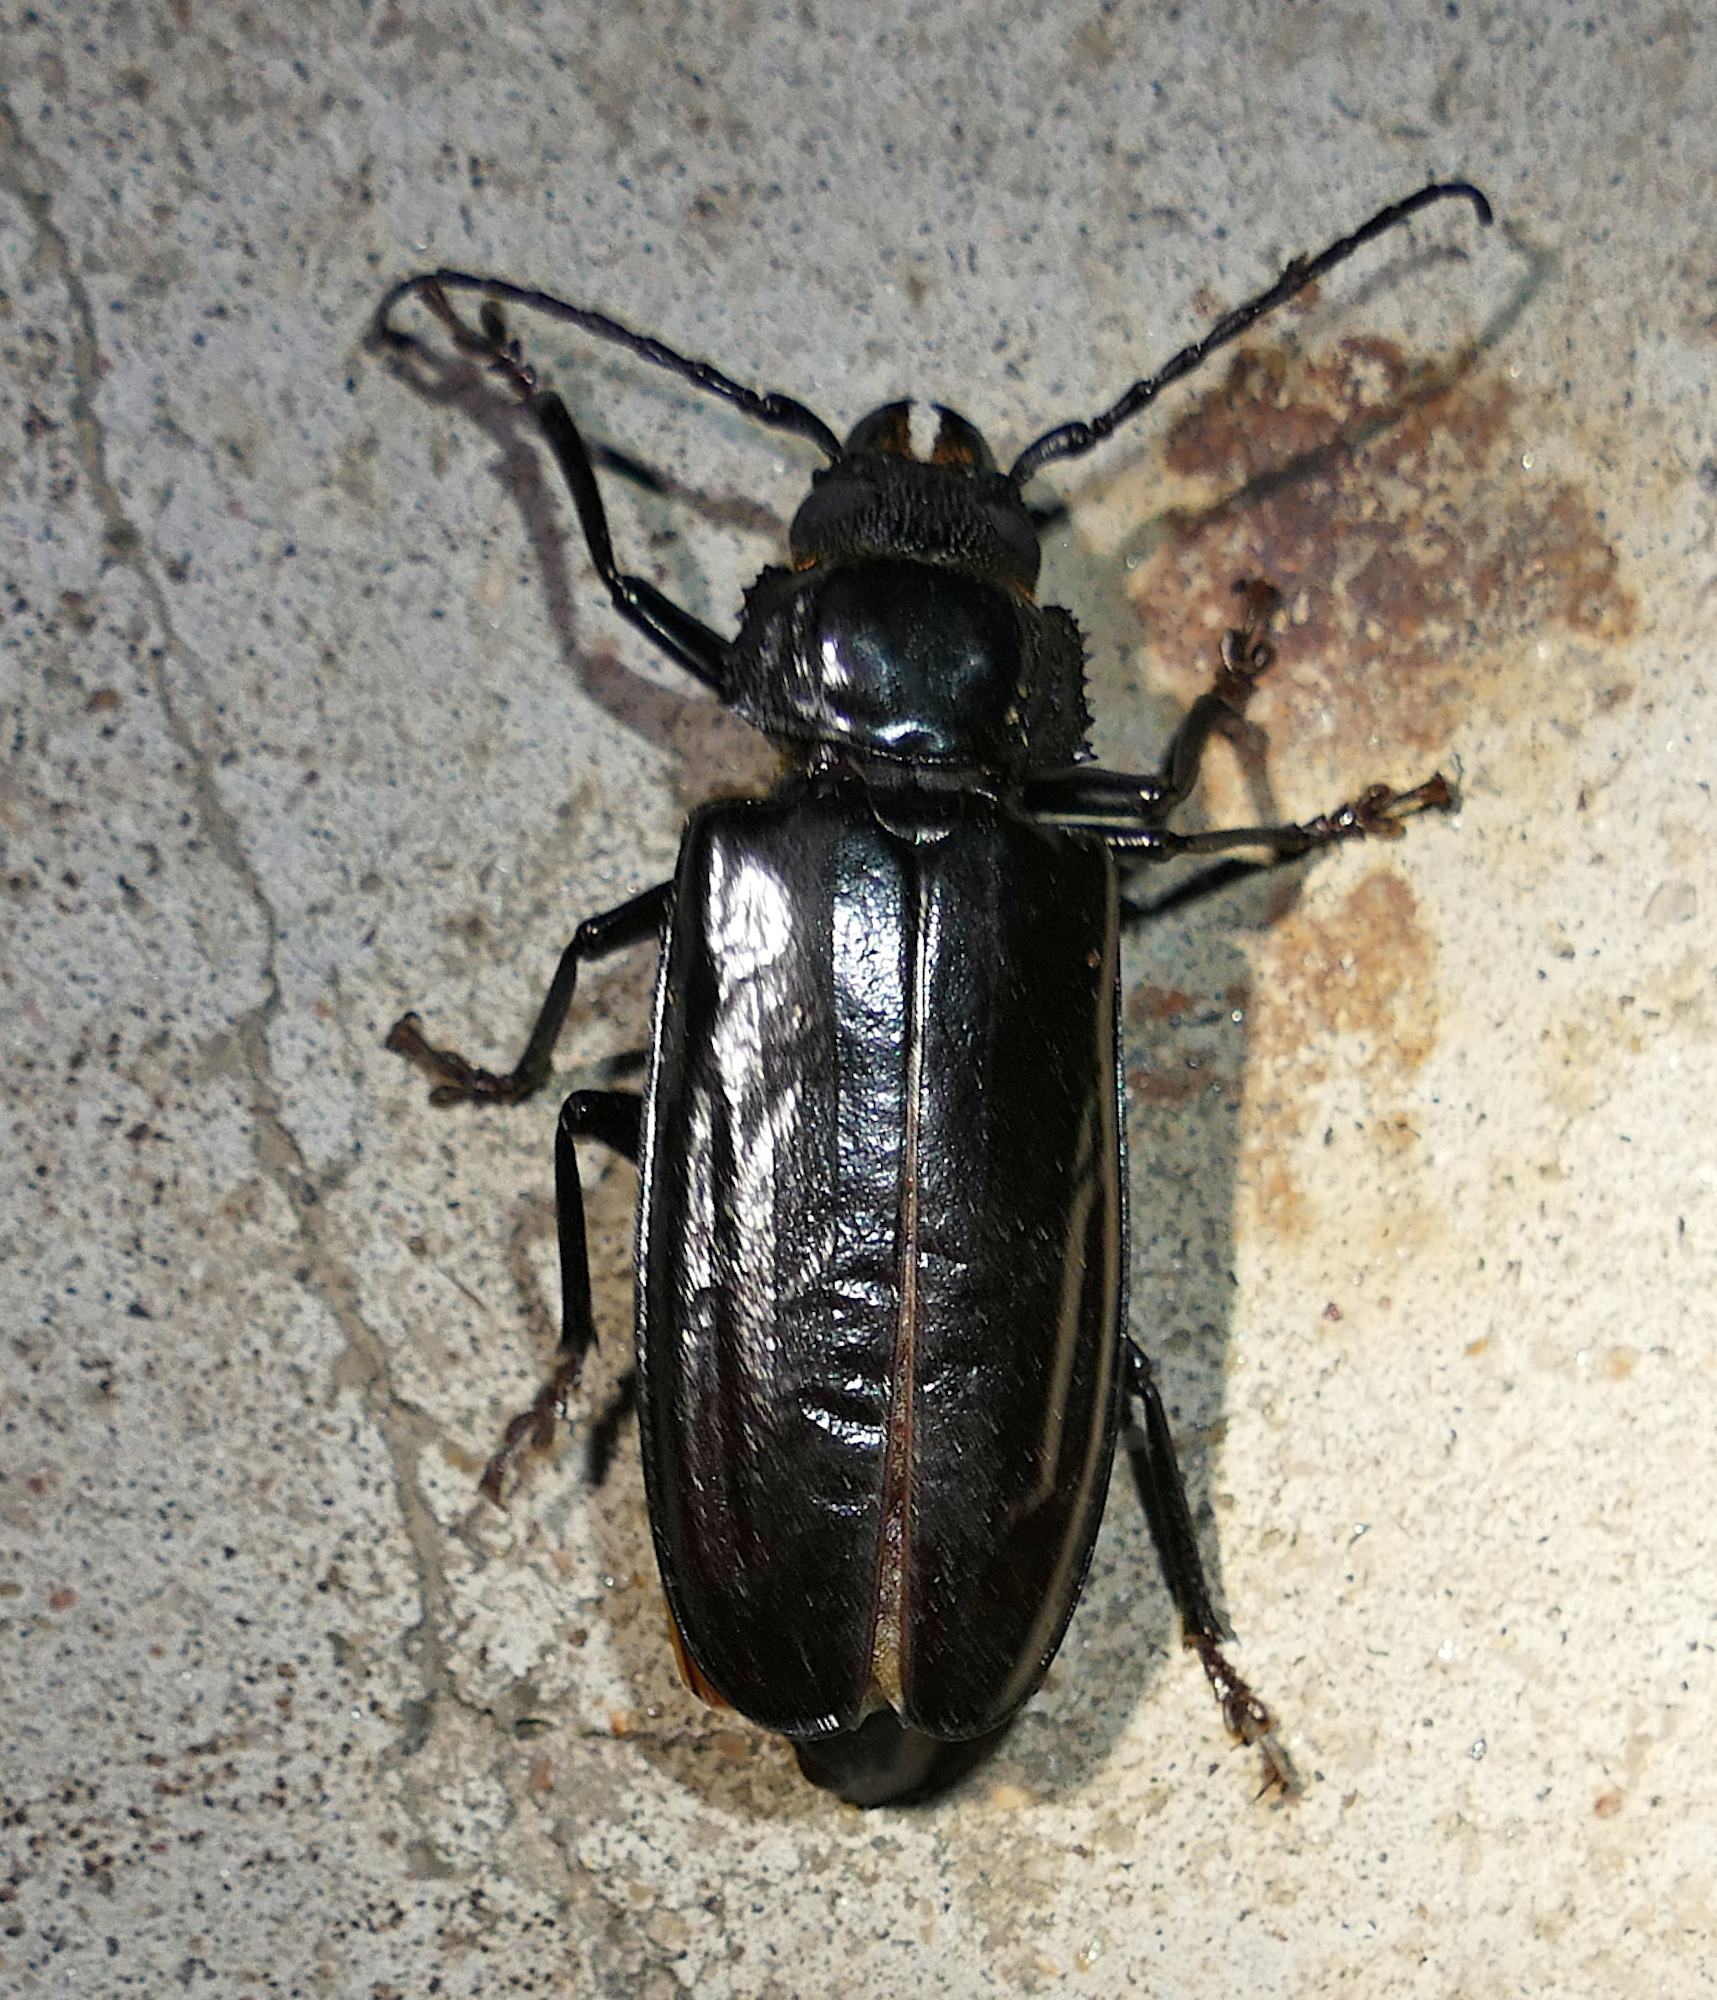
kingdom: Animalia
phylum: Arthropoda
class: Insecta
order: Coleoptera
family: Cerambycidae
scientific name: Cerambycidae
